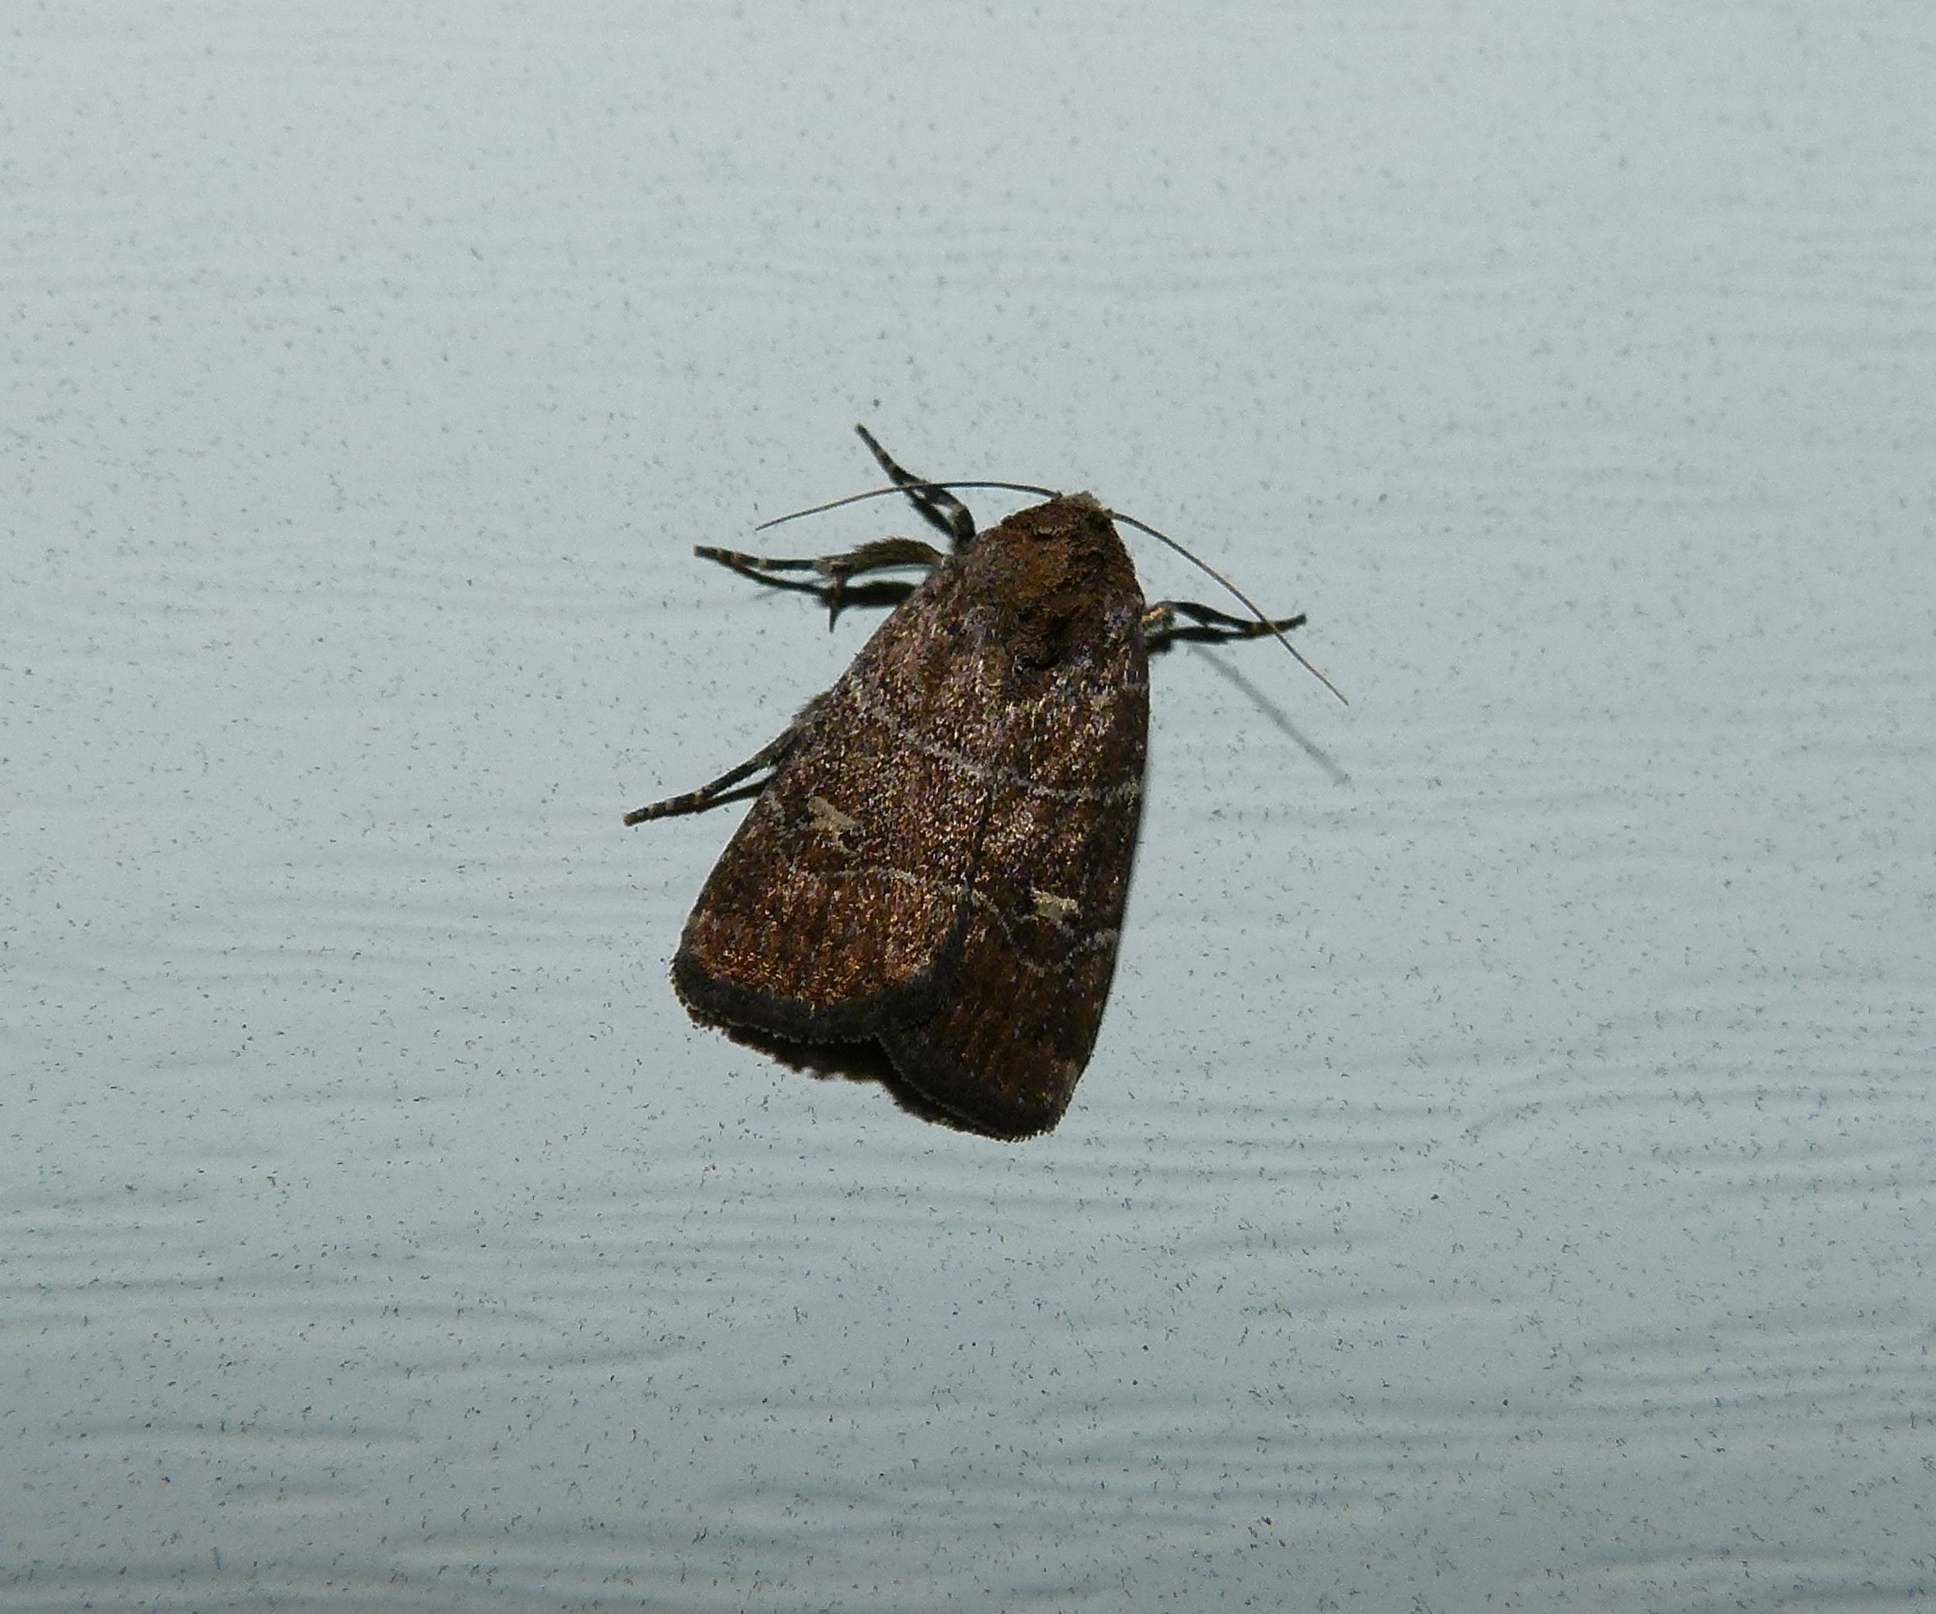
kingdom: Animalia
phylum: Arthropoda
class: Insecta
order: Lepidoptera
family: Noctuidae
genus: Elaphria
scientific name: Elaphria grata
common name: Grateful midget moth
